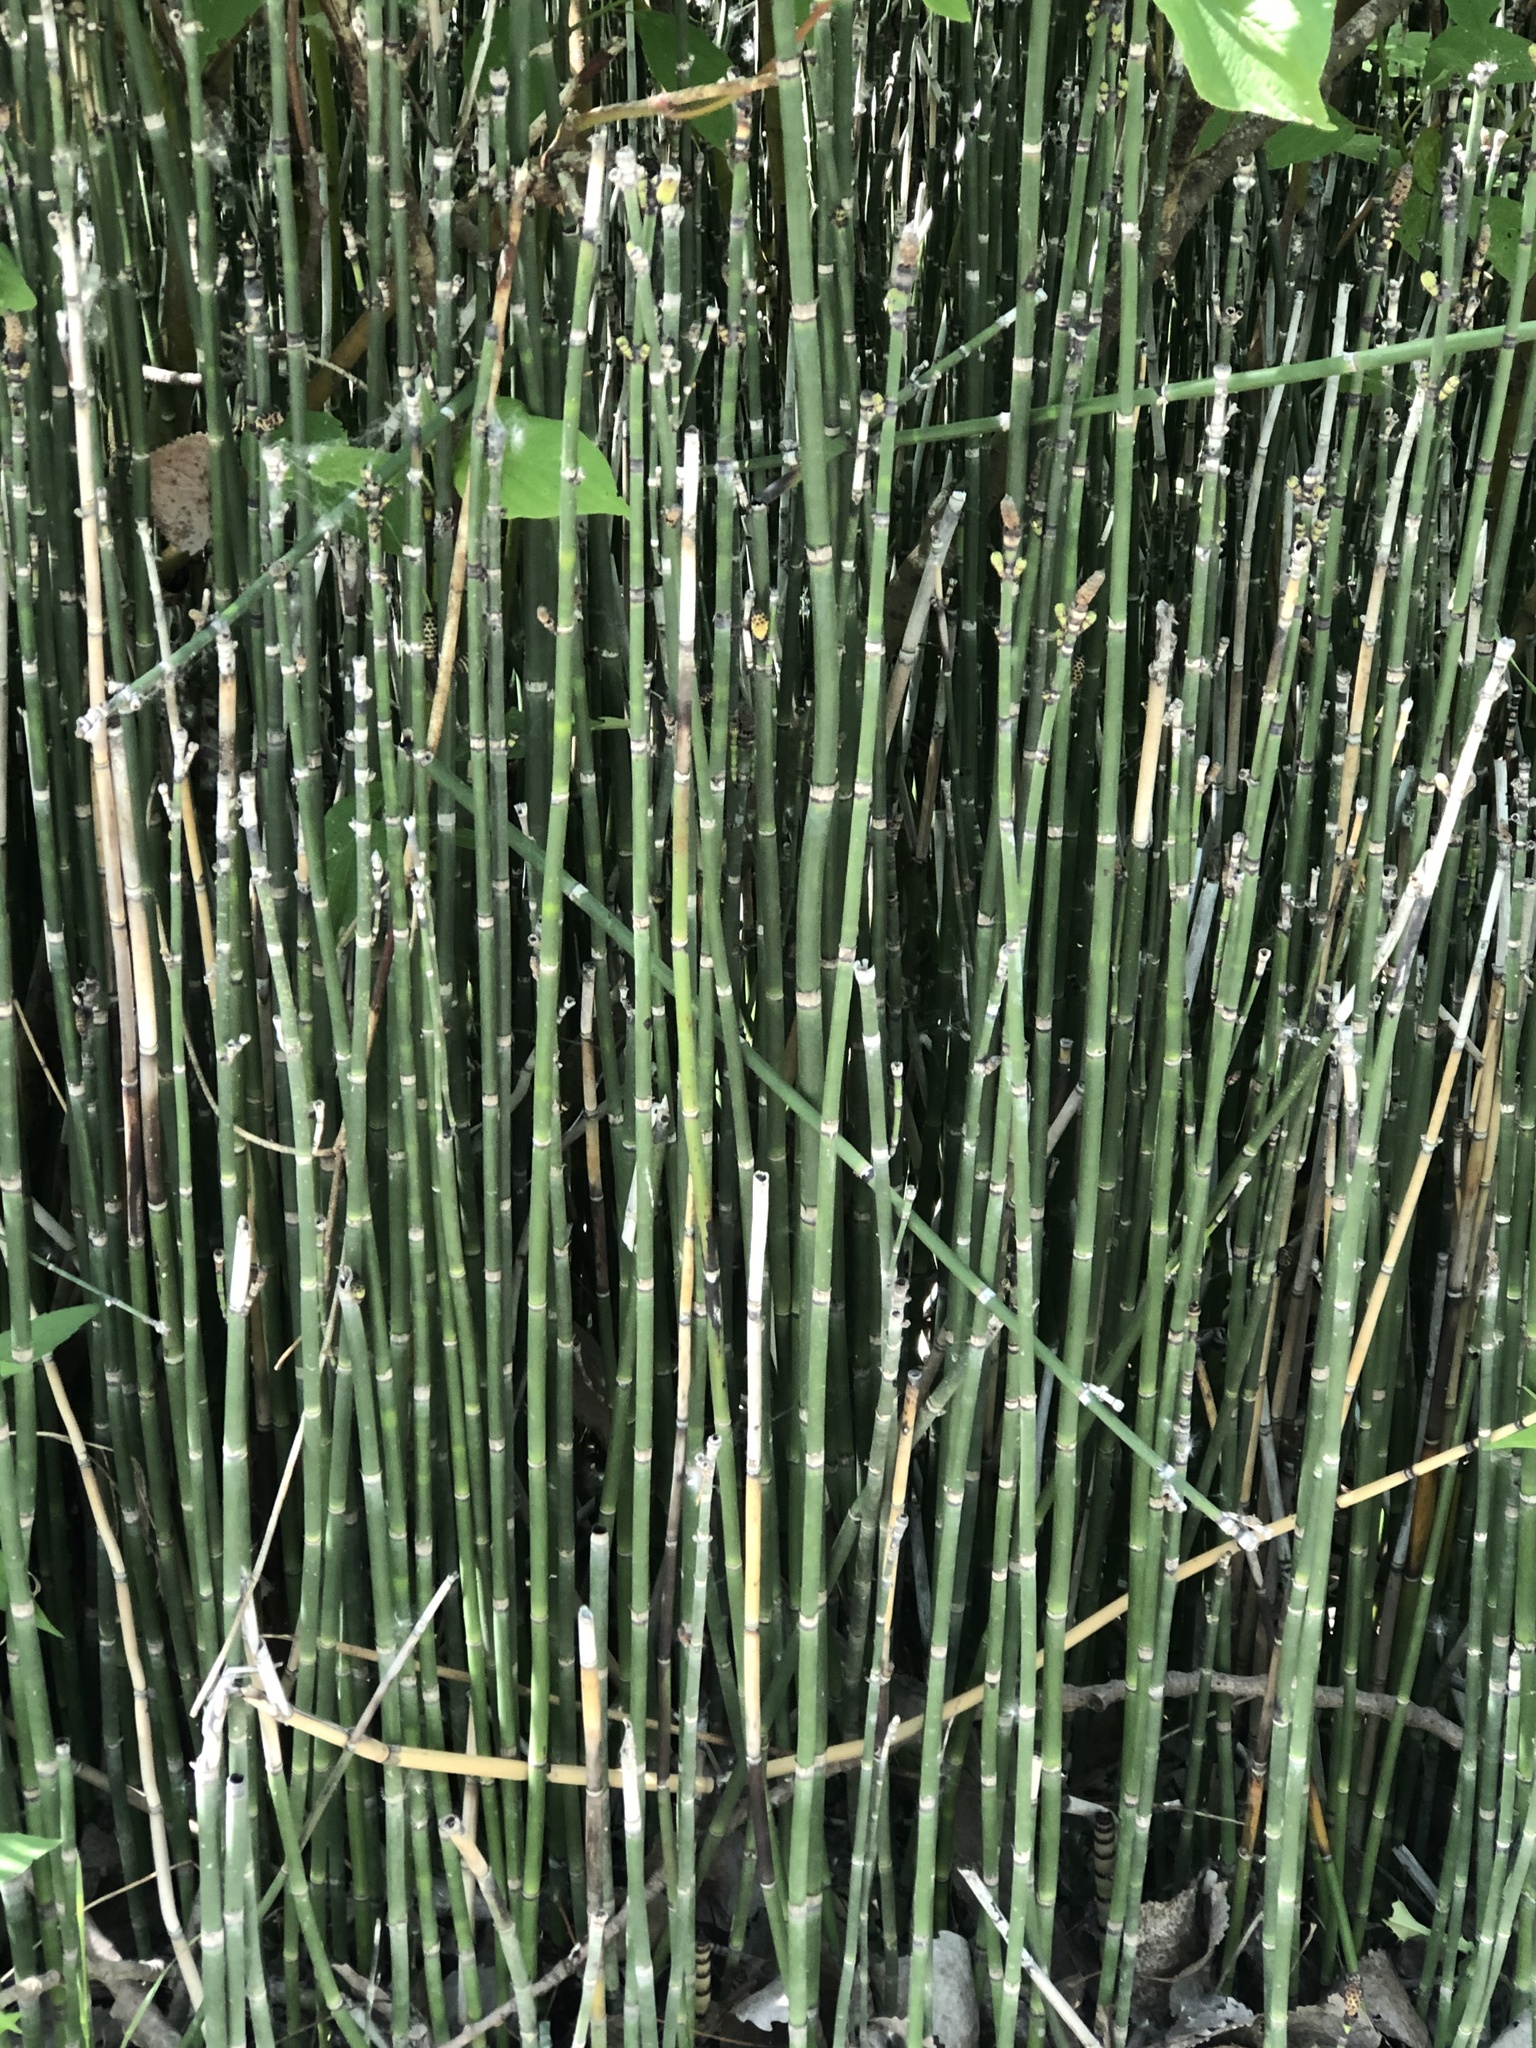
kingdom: Plantae
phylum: Tracheophyta
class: Polypodiopsida
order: Equisetales
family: Equisetaceae
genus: Equisetum
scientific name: Equisetum praealtum
